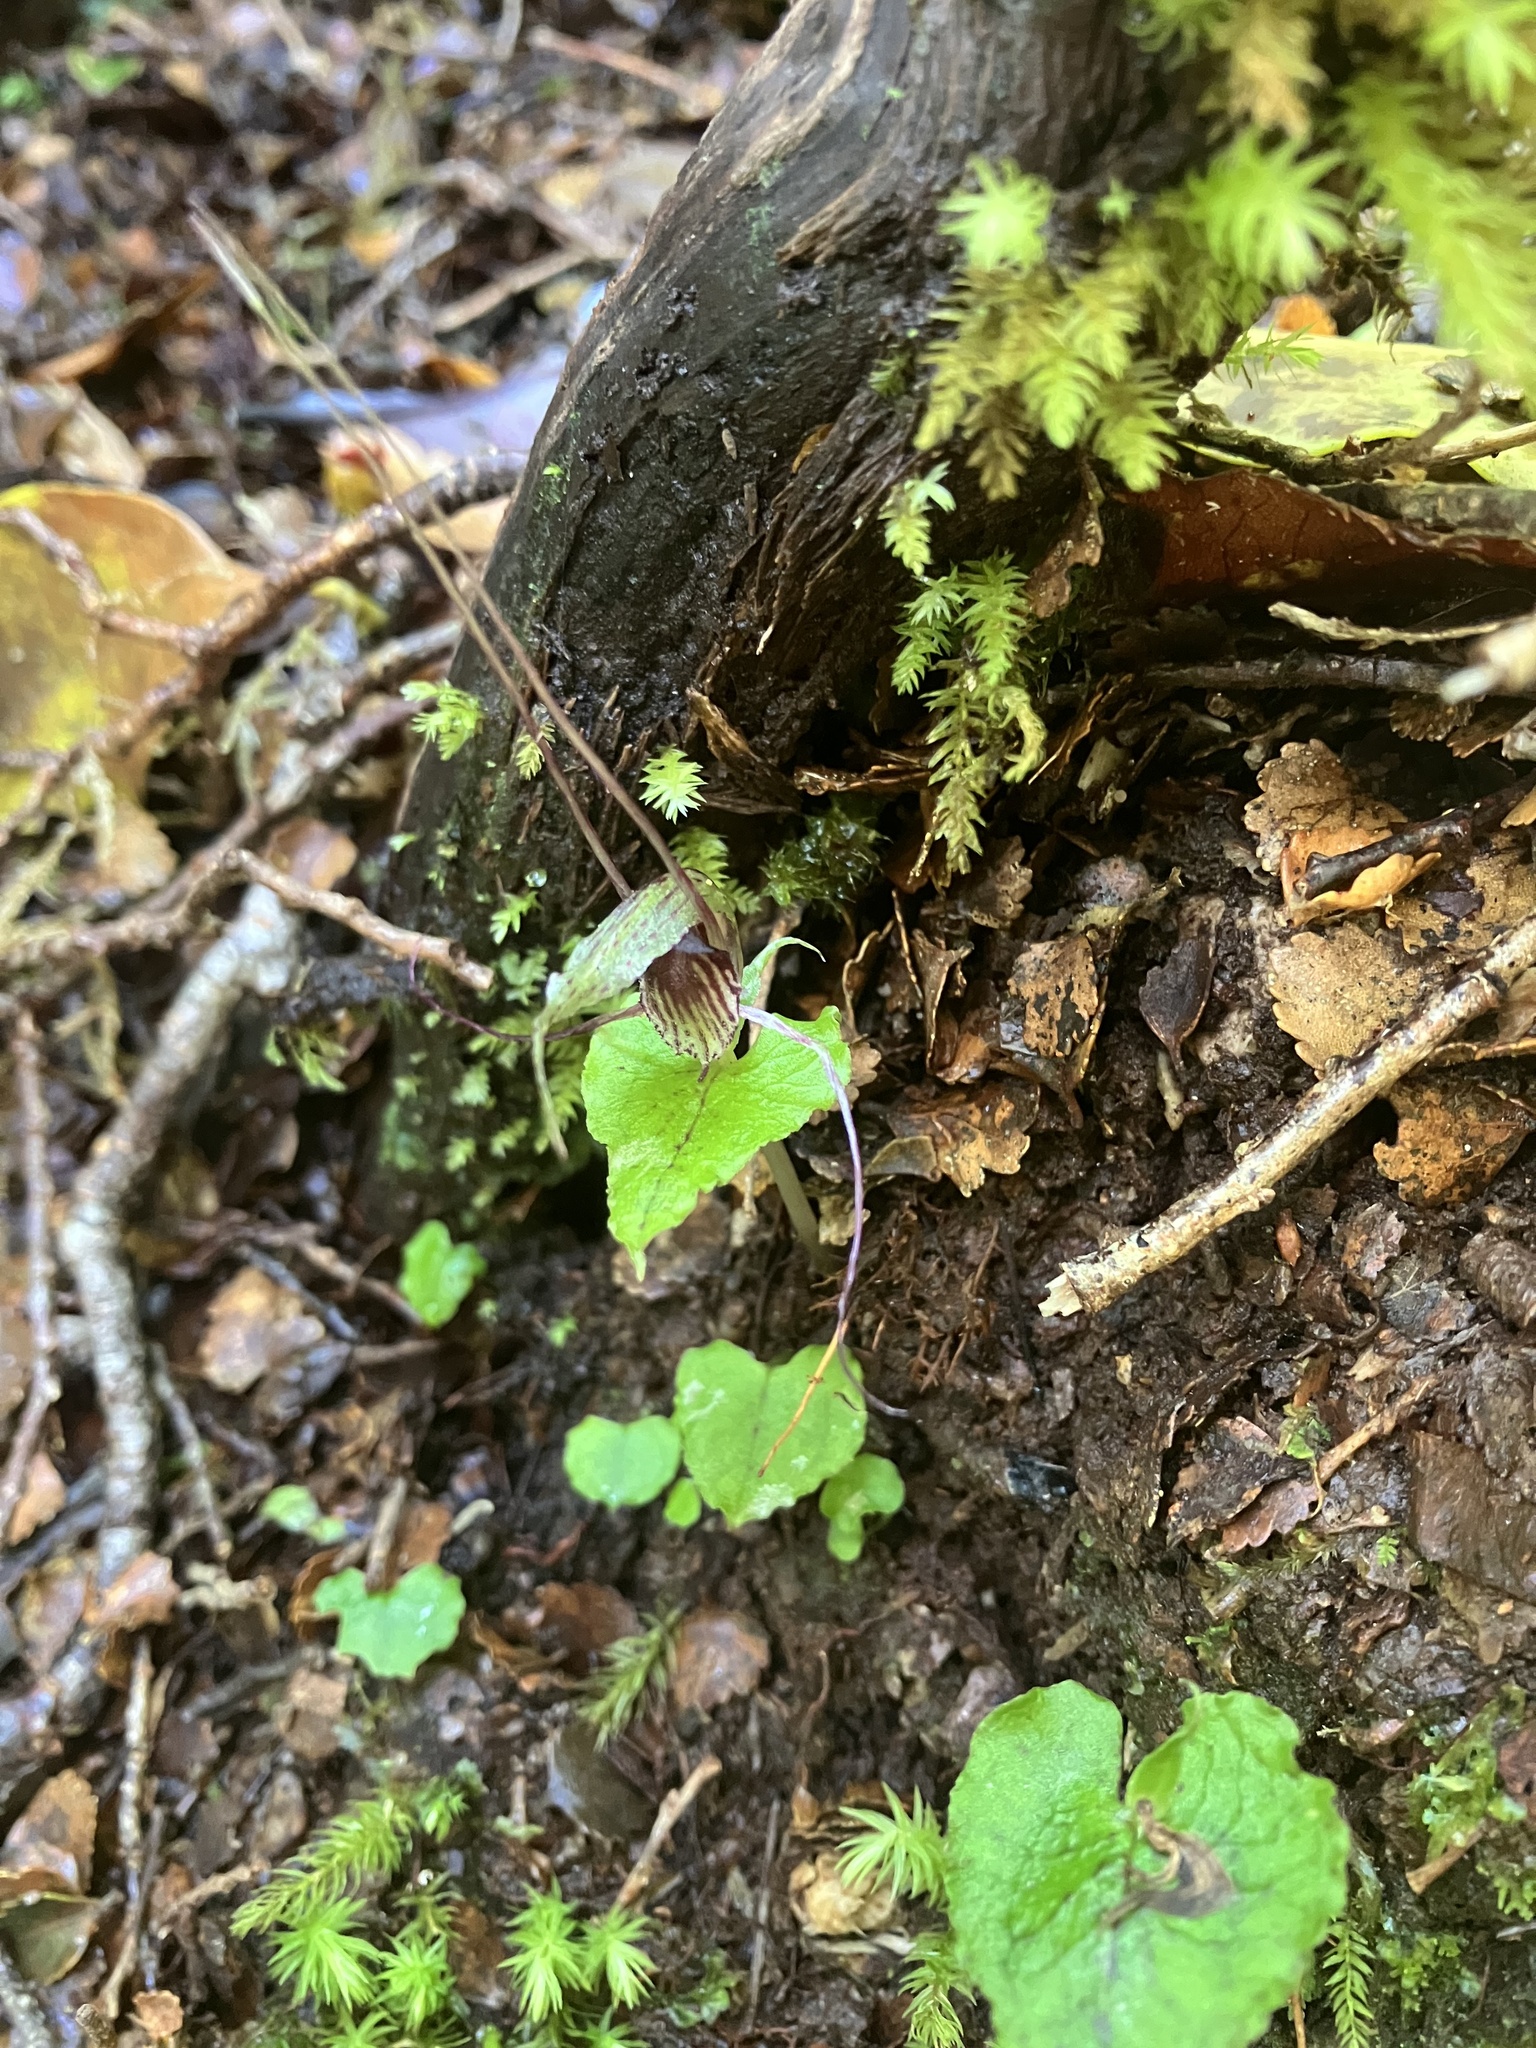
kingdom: Plantae
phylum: Tracheophyta
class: Liliopsida
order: Asparagales
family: Orchidaceae
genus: Corybas
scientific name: Corybas acuminatus
